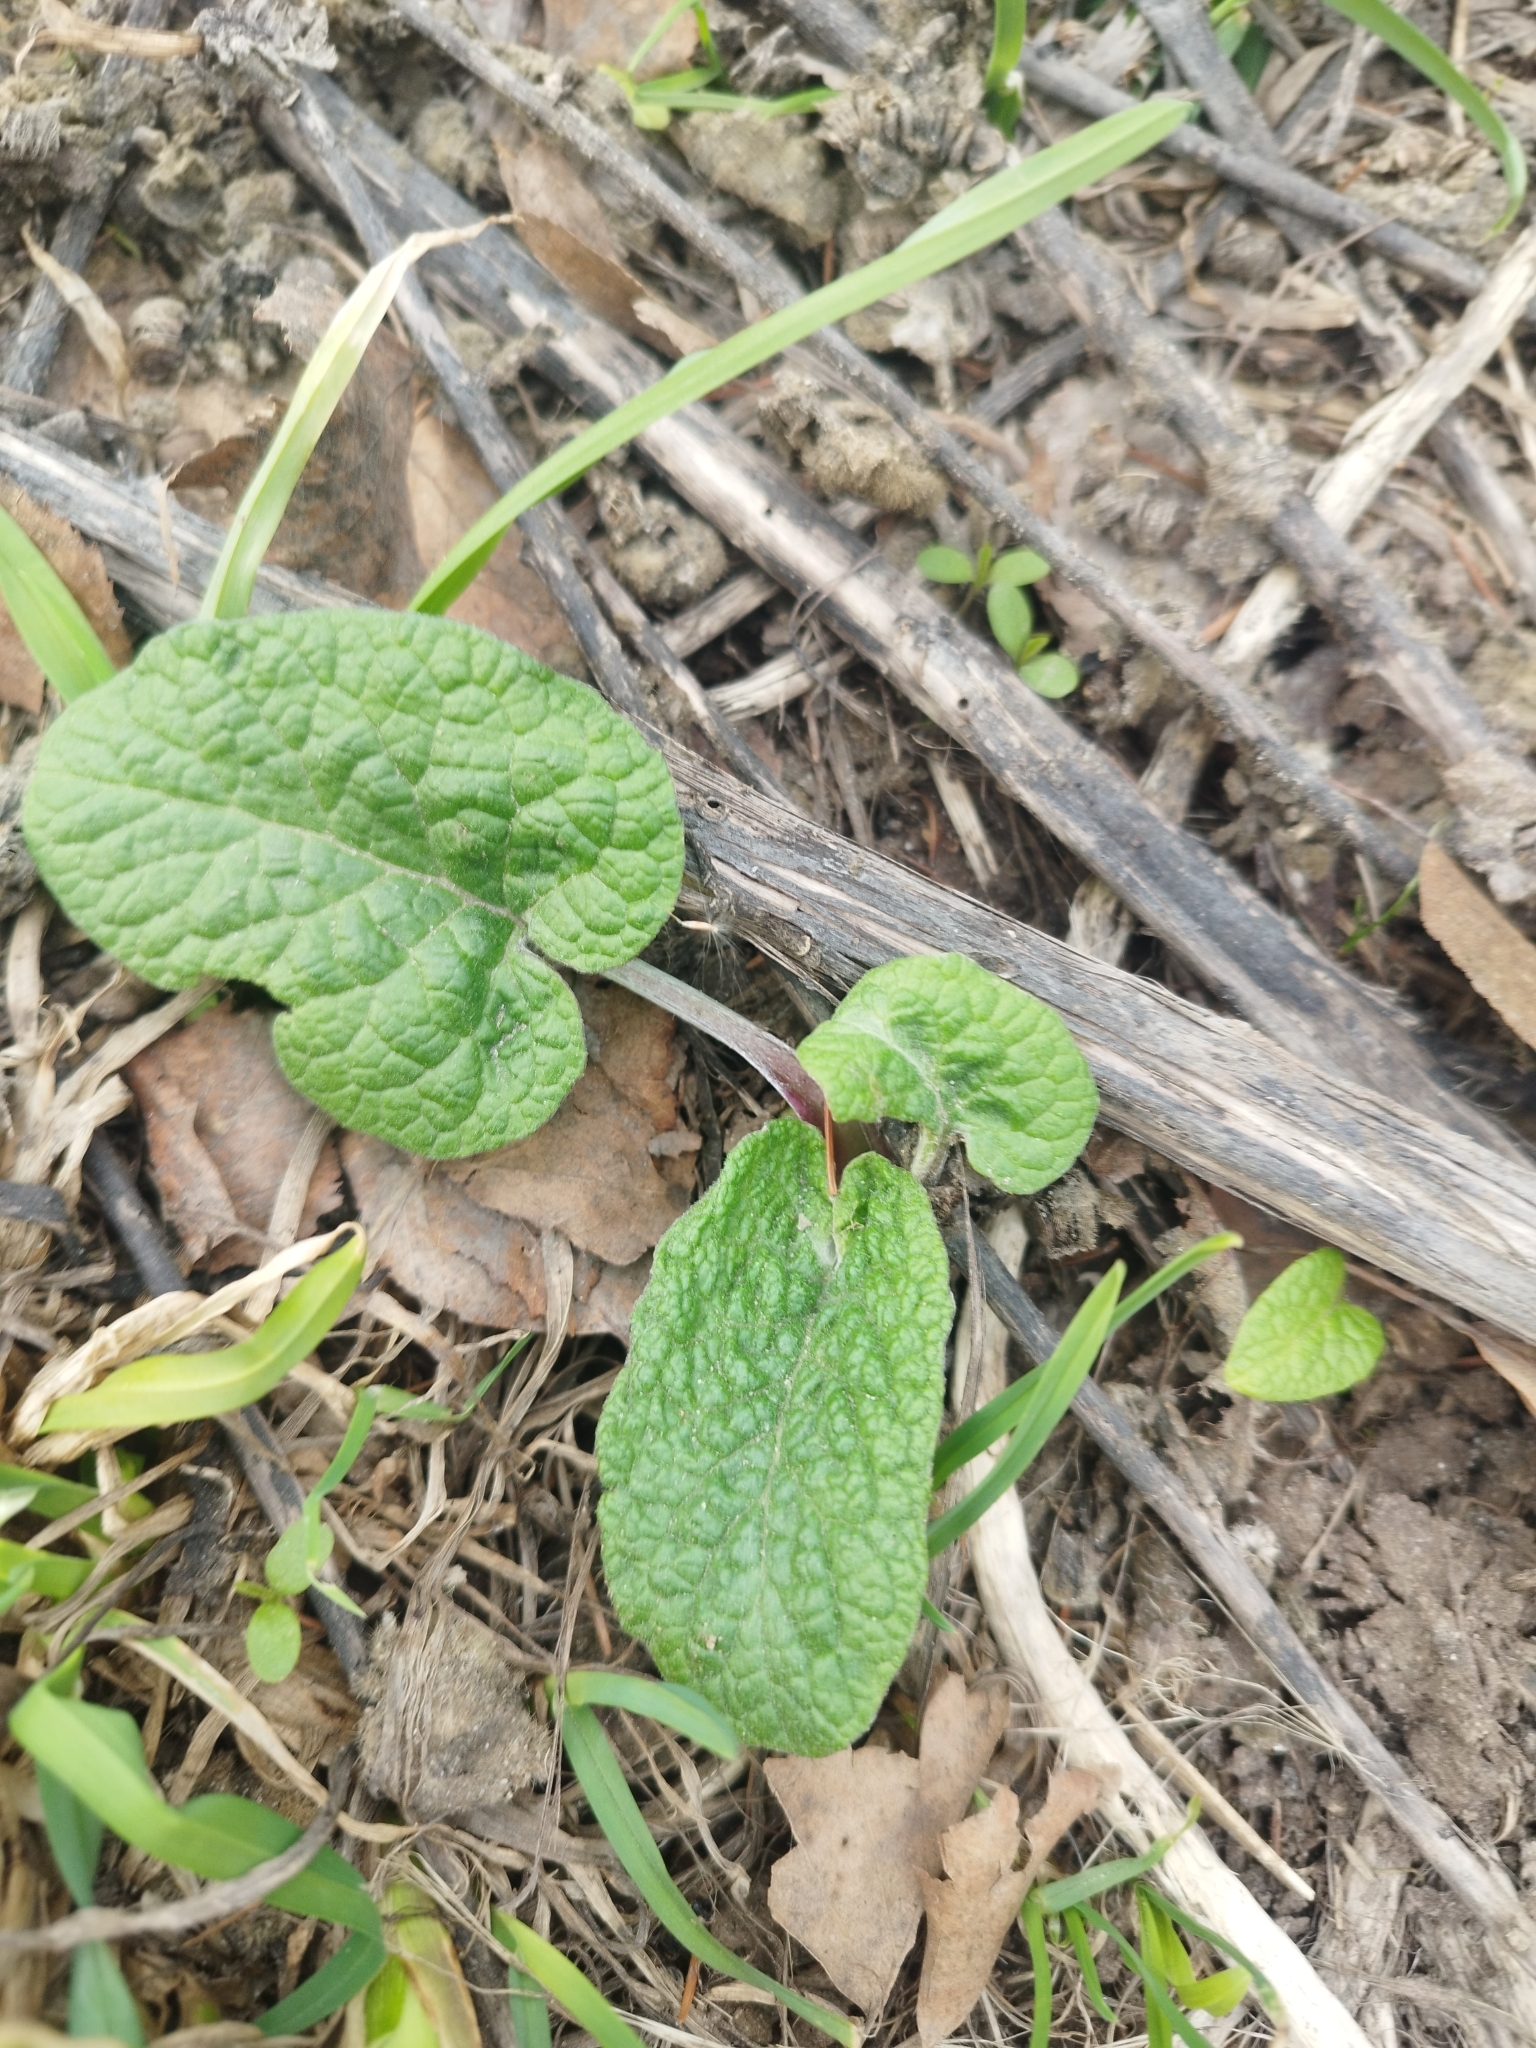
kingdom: Plantae
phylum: Tracheophyta
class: Magnoliopsida
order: Asterales
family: Asteraceae
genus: Arctium
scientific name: Arctium
